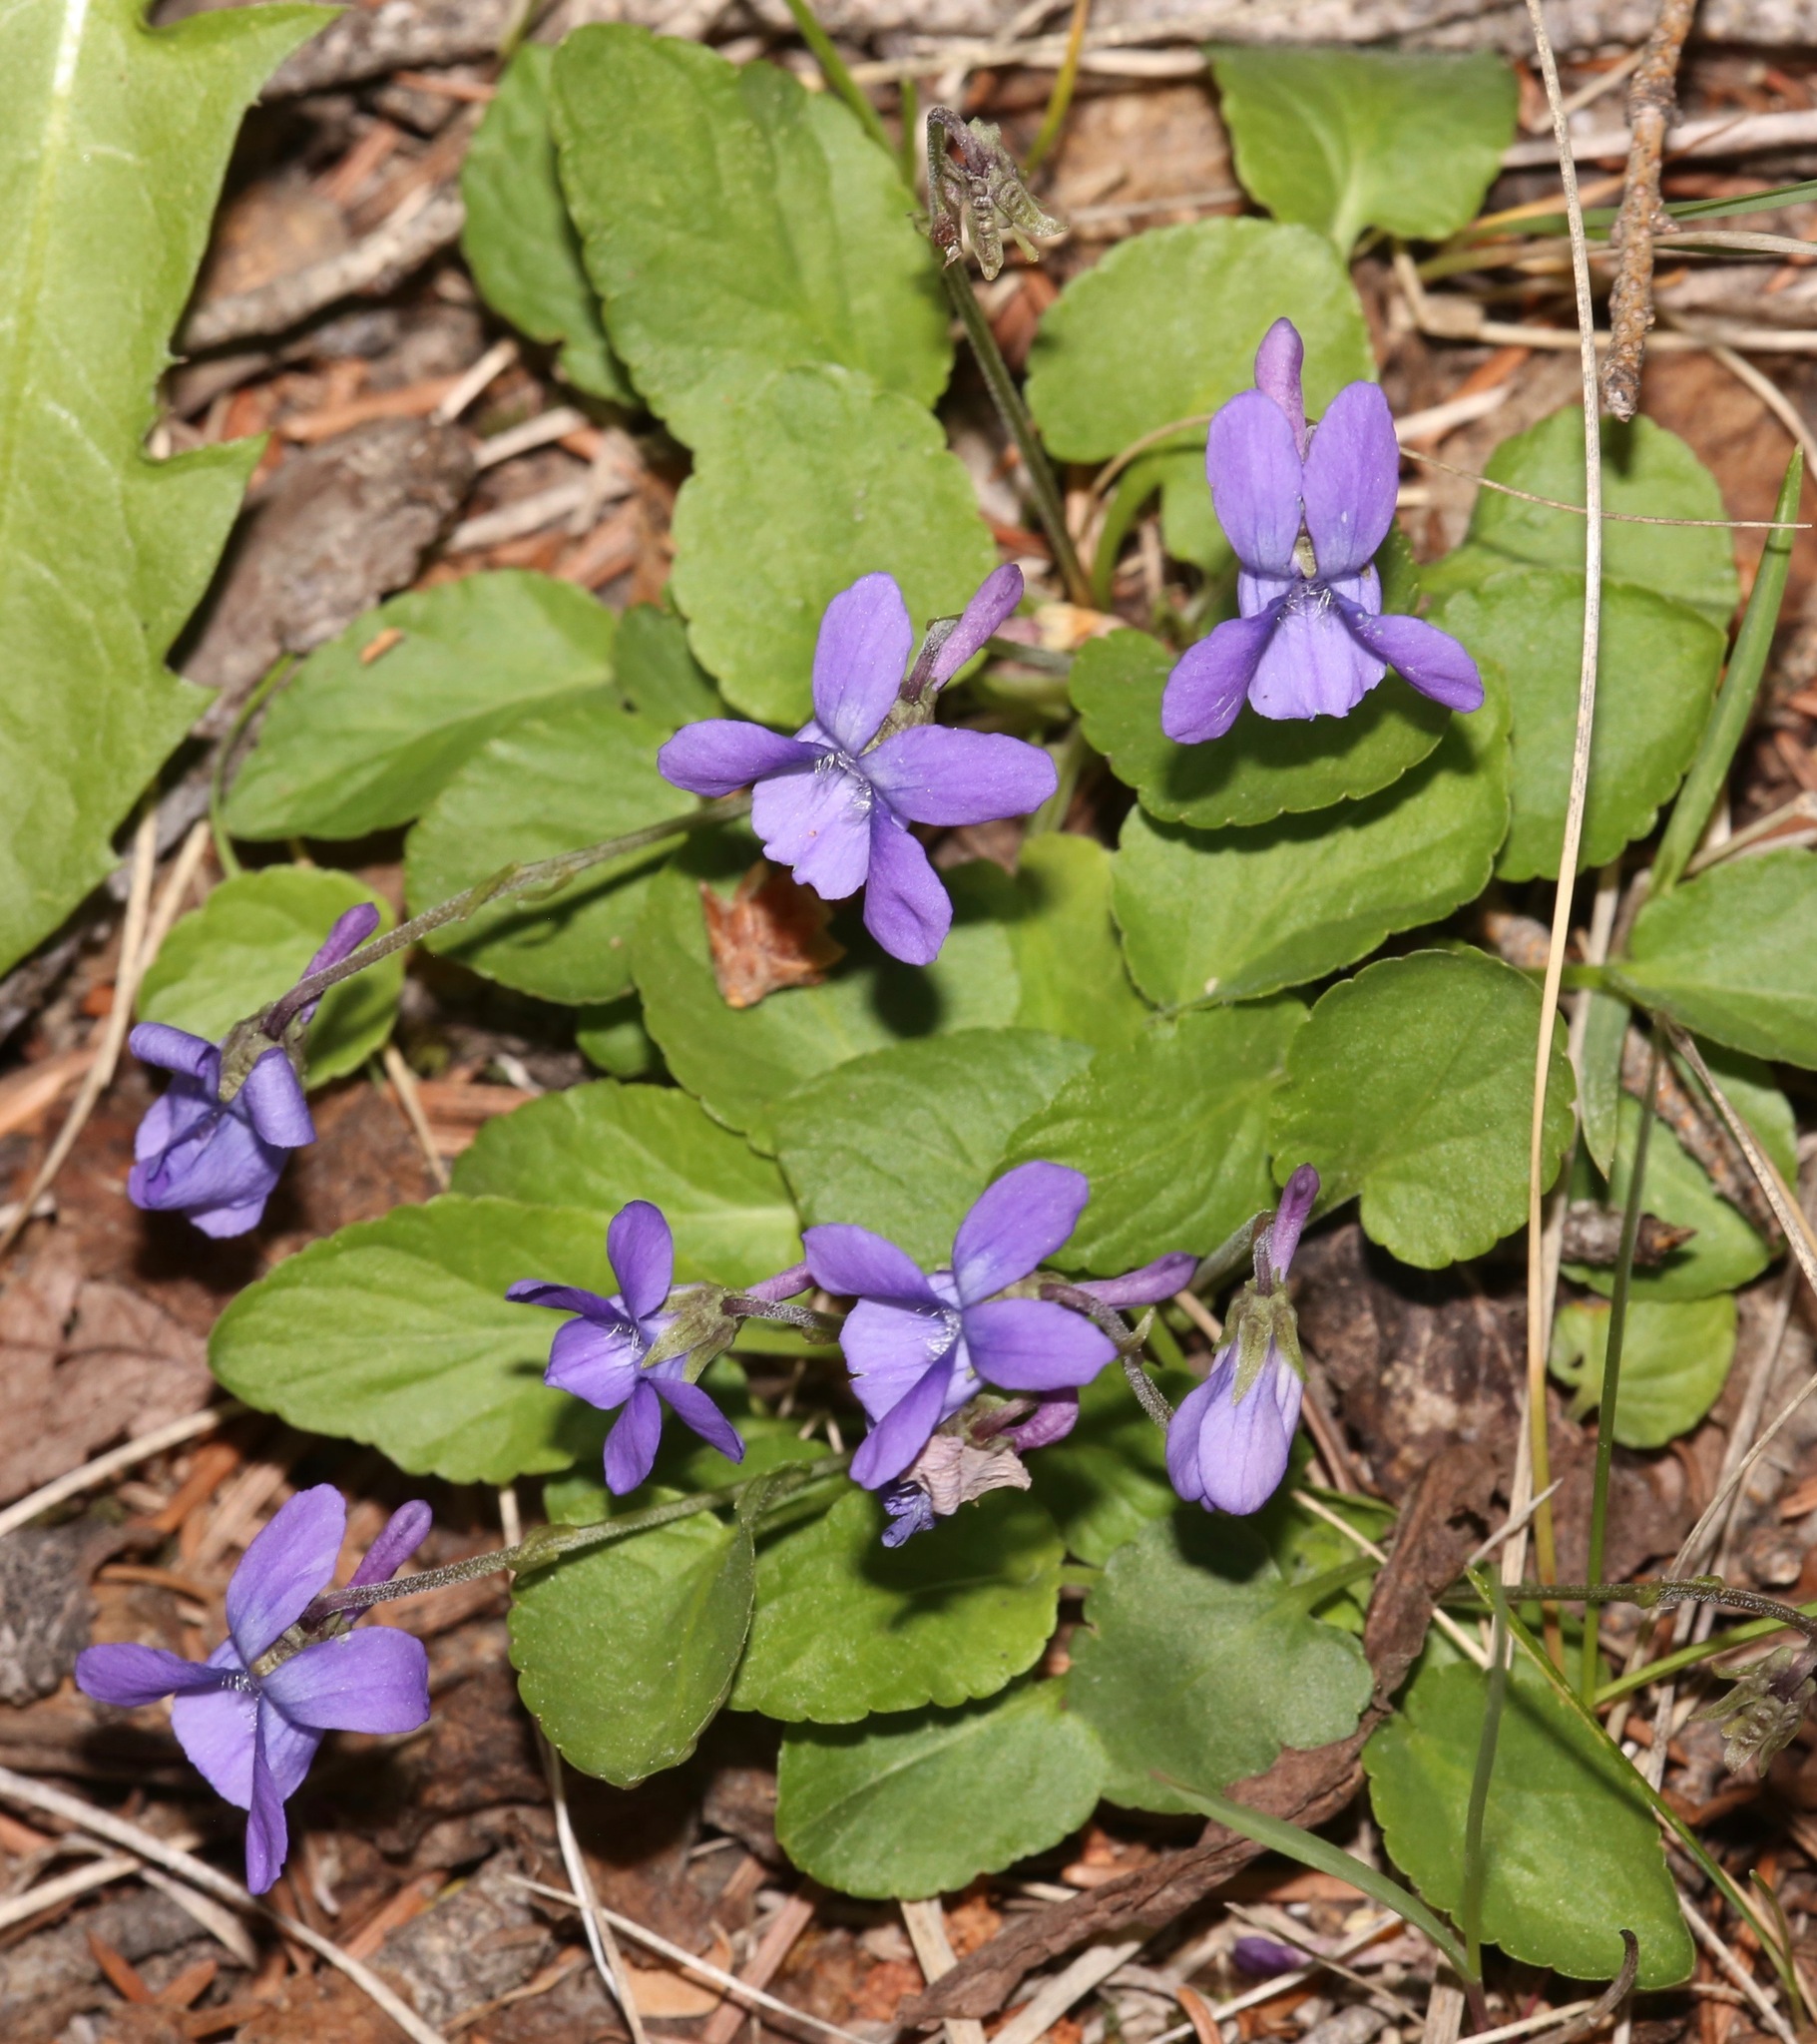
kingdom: Plantae
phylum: Tracheophyta
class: Magnoliopsida
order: Malpighiales
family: Violaceae
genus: Viola
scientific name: Viola adunca
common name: Sand violet
